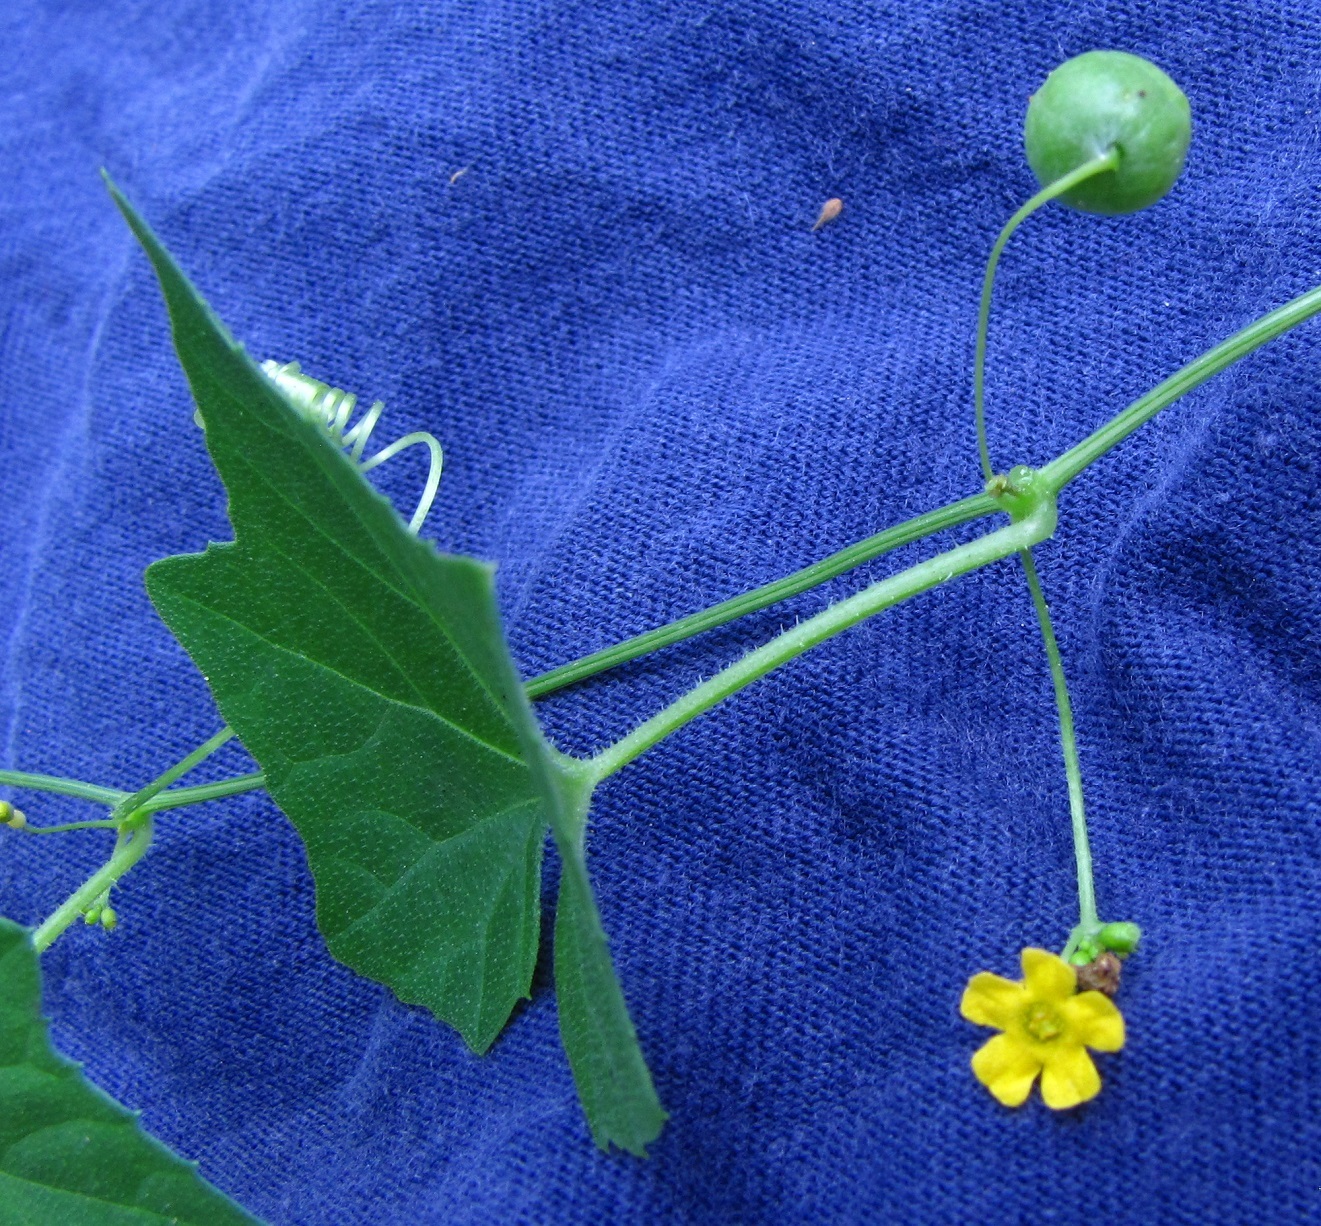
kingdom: Plantae
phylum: Tracheophyta
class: Magnoliopsida
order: Cucurbitales
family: Cucurbitaceae
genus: Melothria
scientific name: Melothria pendula
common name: Creeping-cucumber
